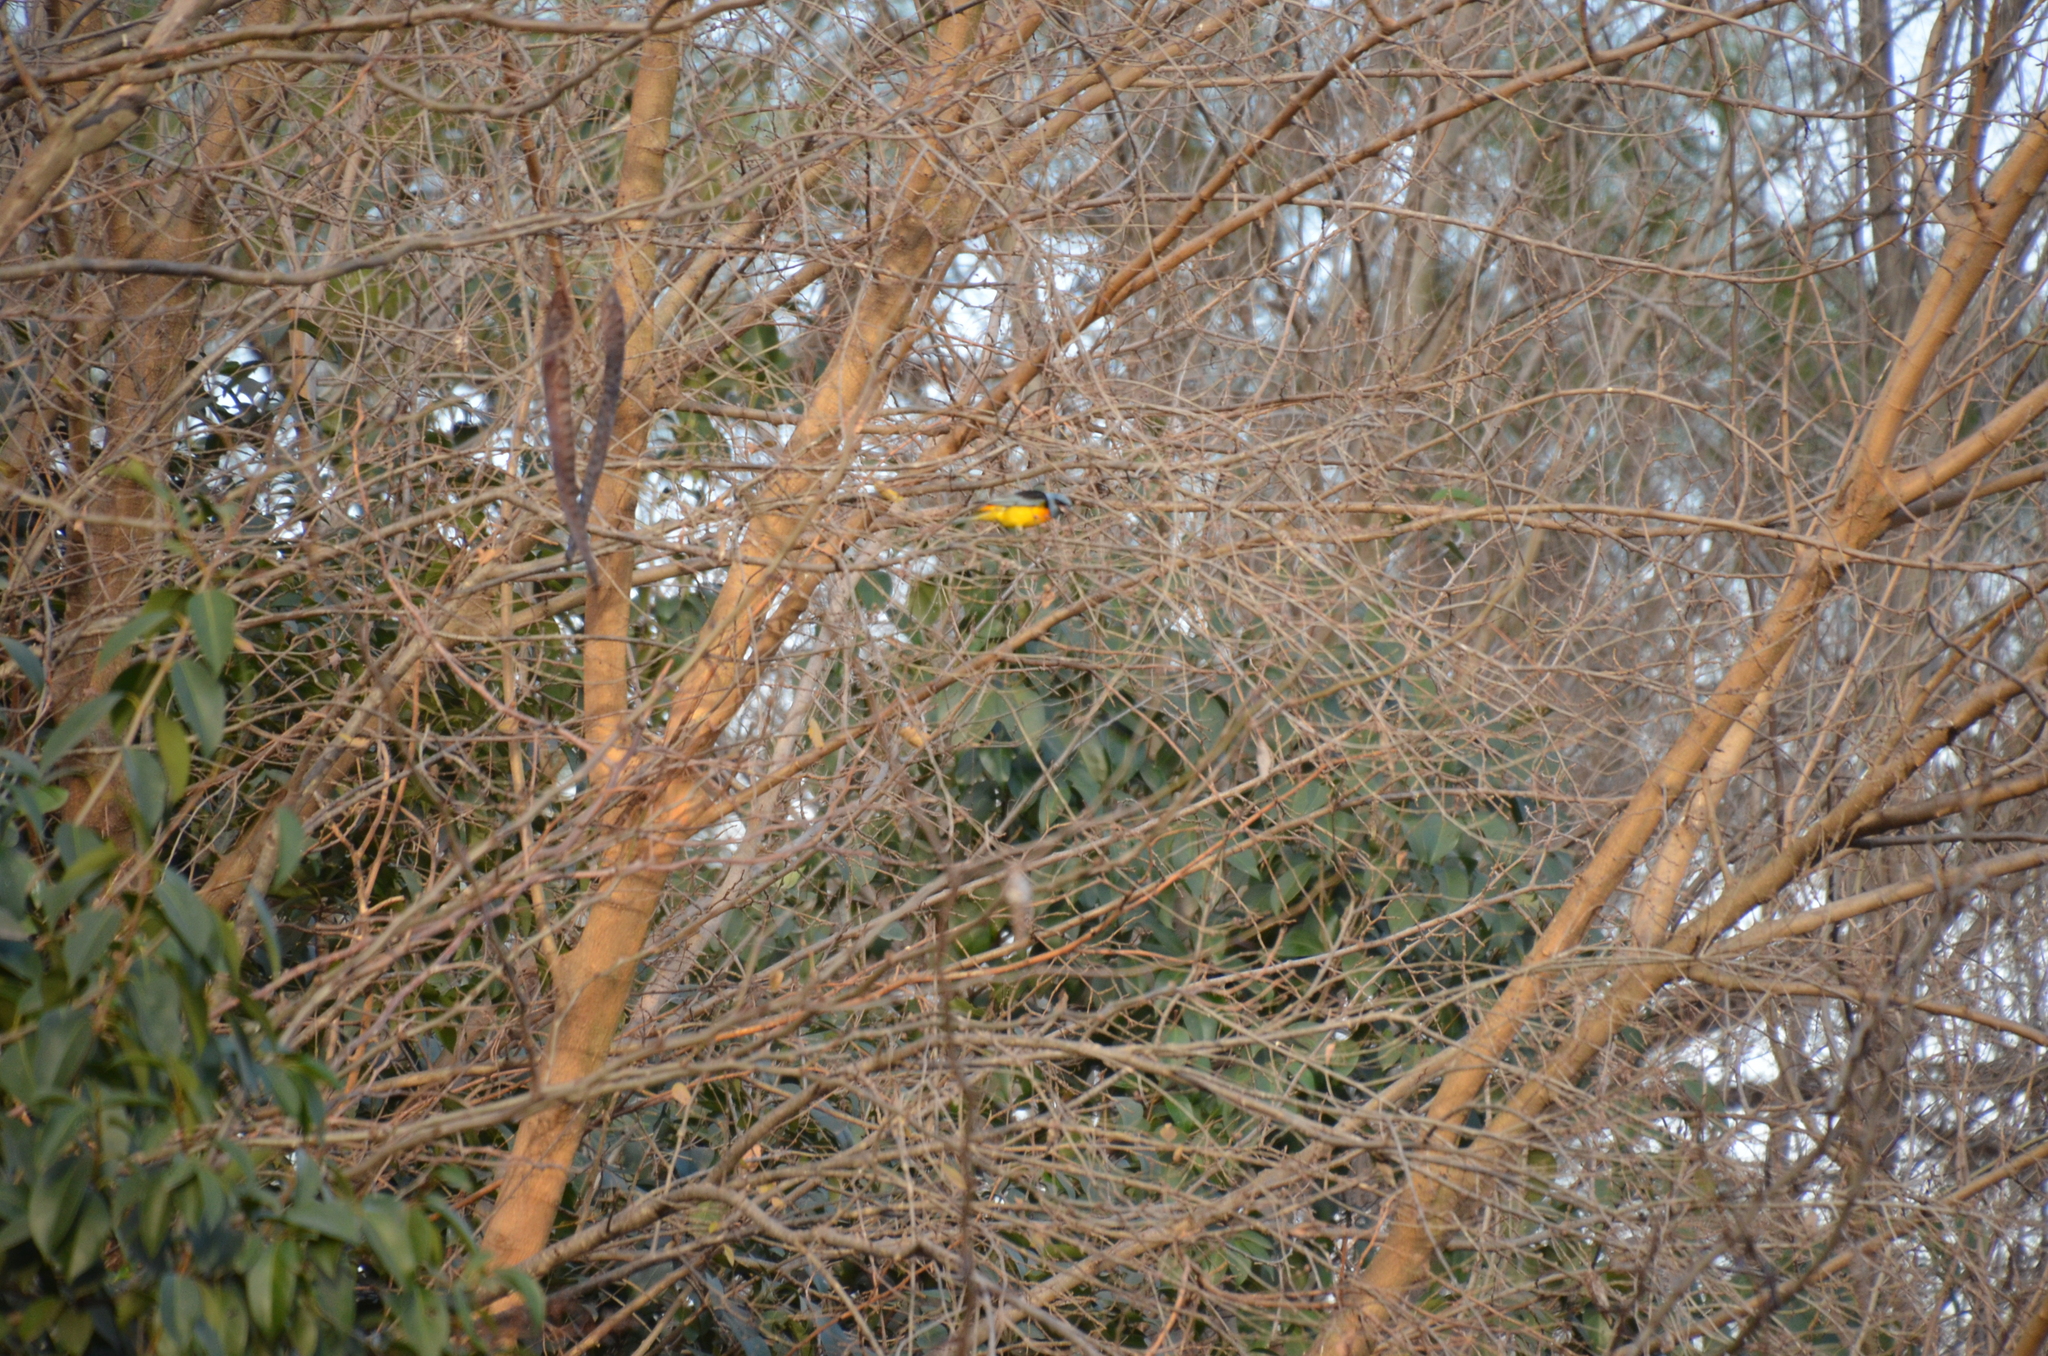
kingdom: Animalia
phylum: Chordata
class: Aves
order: Passeriformes
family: Thraupidae
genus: Rauenia
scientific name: Rauenia bonariensis
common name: Blue-and-yellow tanager
